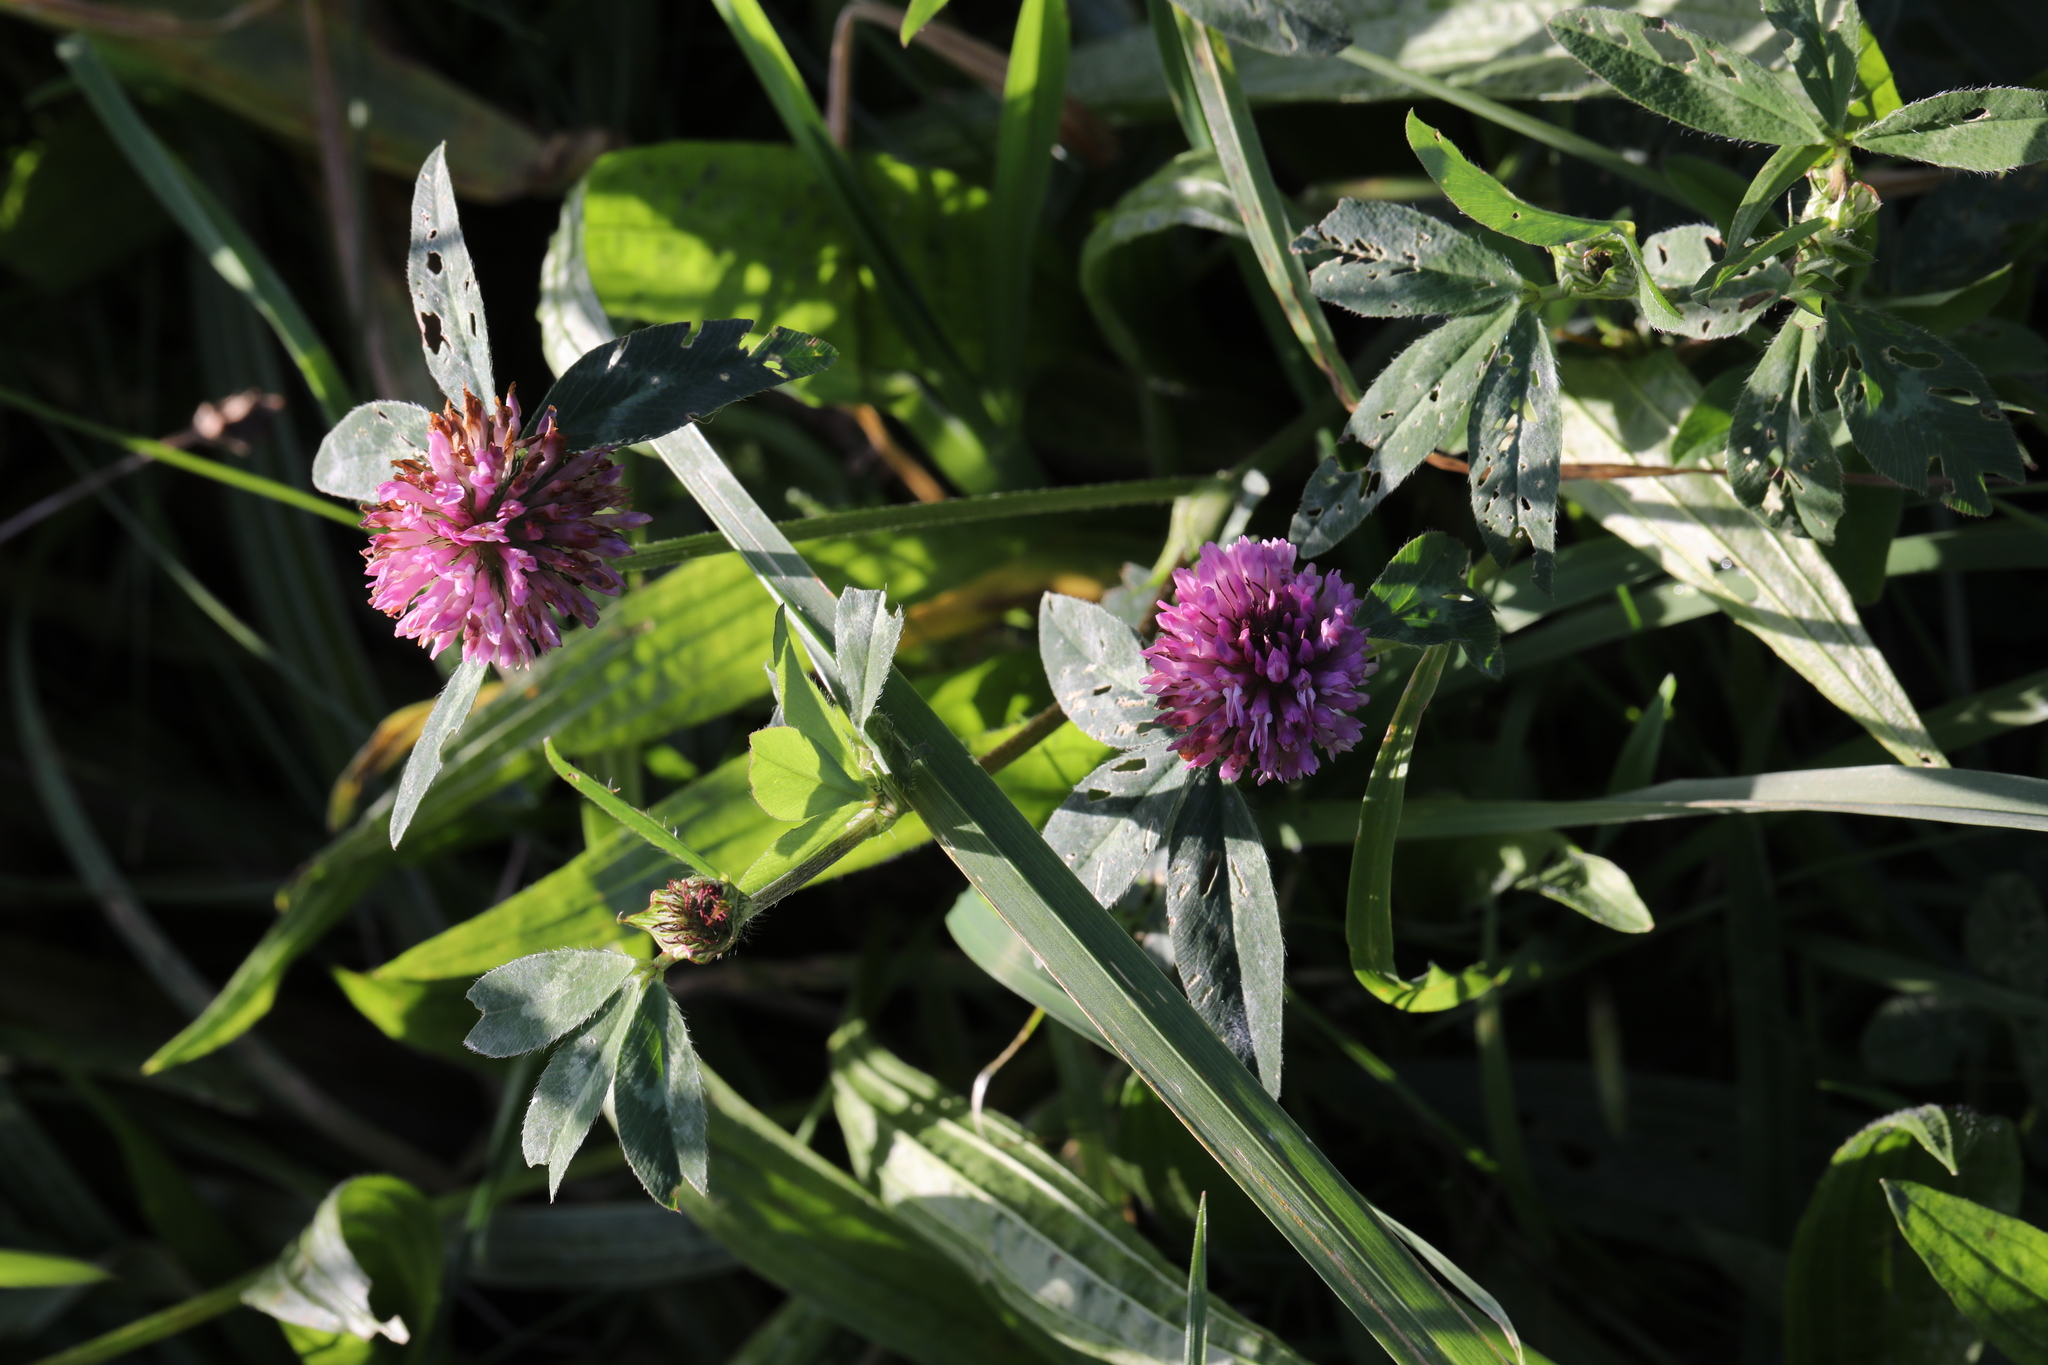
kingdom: Plantae
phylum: Tracheophyta
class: Magnoliopsida
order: Fabales
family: Fabaceae
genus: Trifolium
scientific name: Trifolium pratense
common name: Red clover
